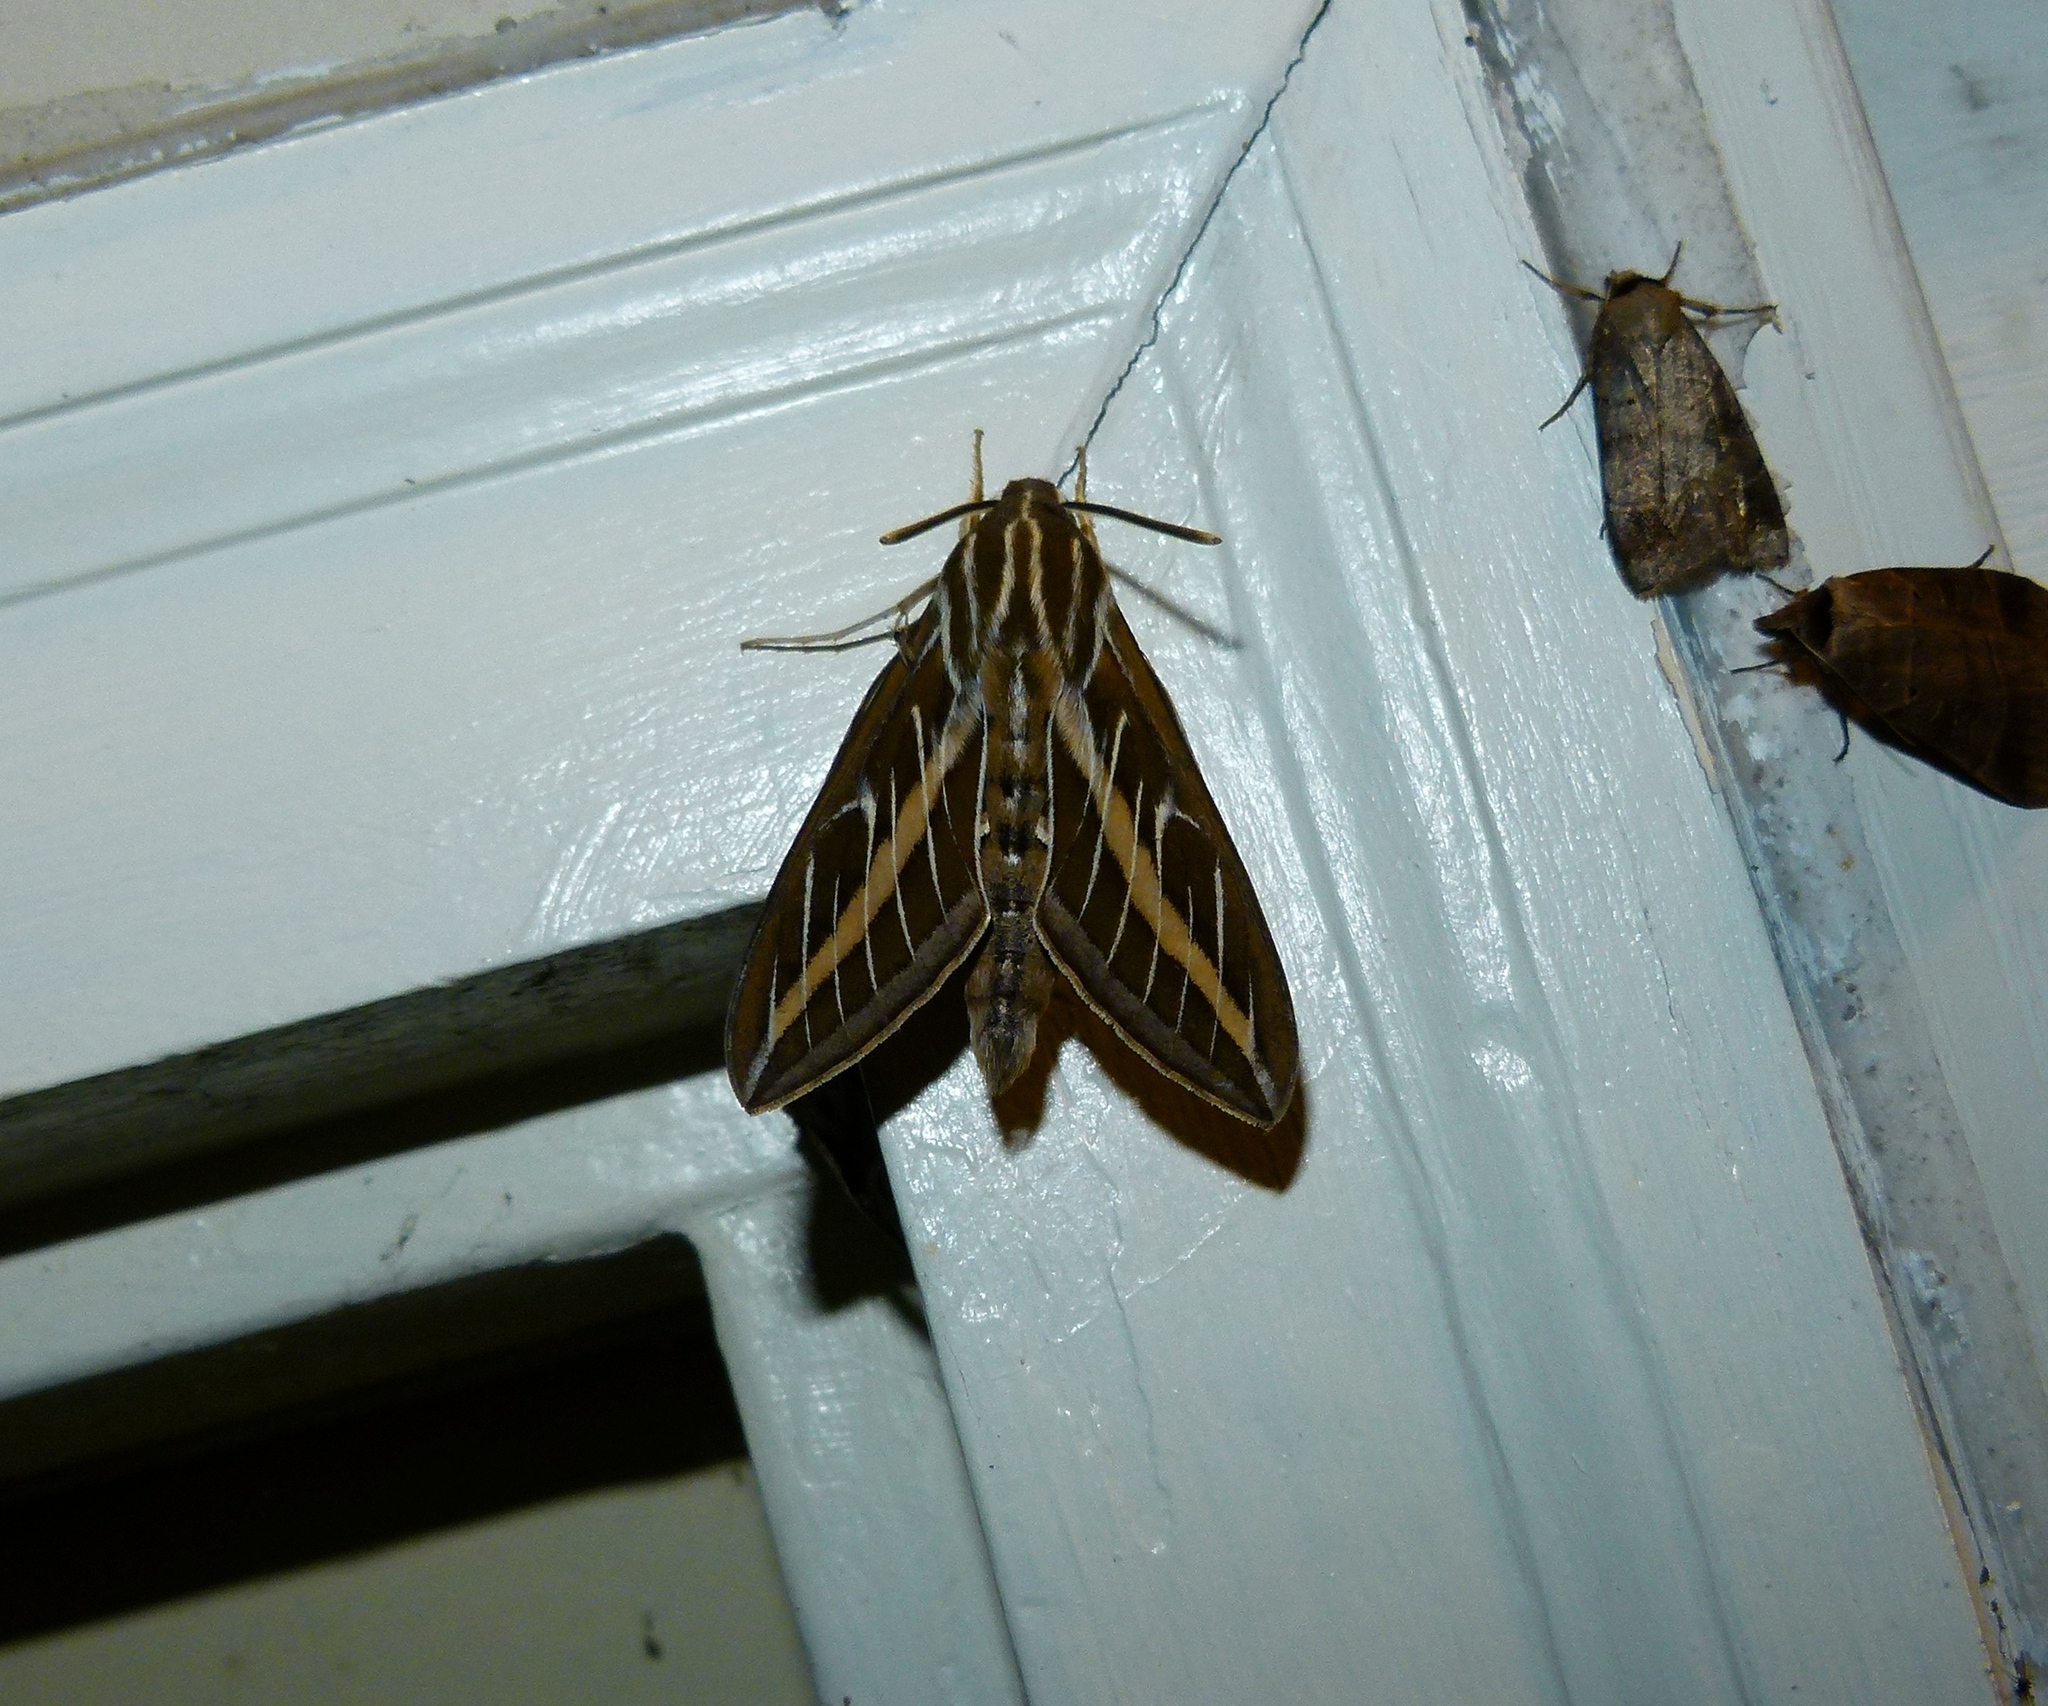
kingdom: Animalia
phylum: Arthropoda
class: Insecta
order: Lepidoptera
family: Sphingidae
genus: Hyles
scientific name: Hyles lineata
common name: White-lined sphinx
